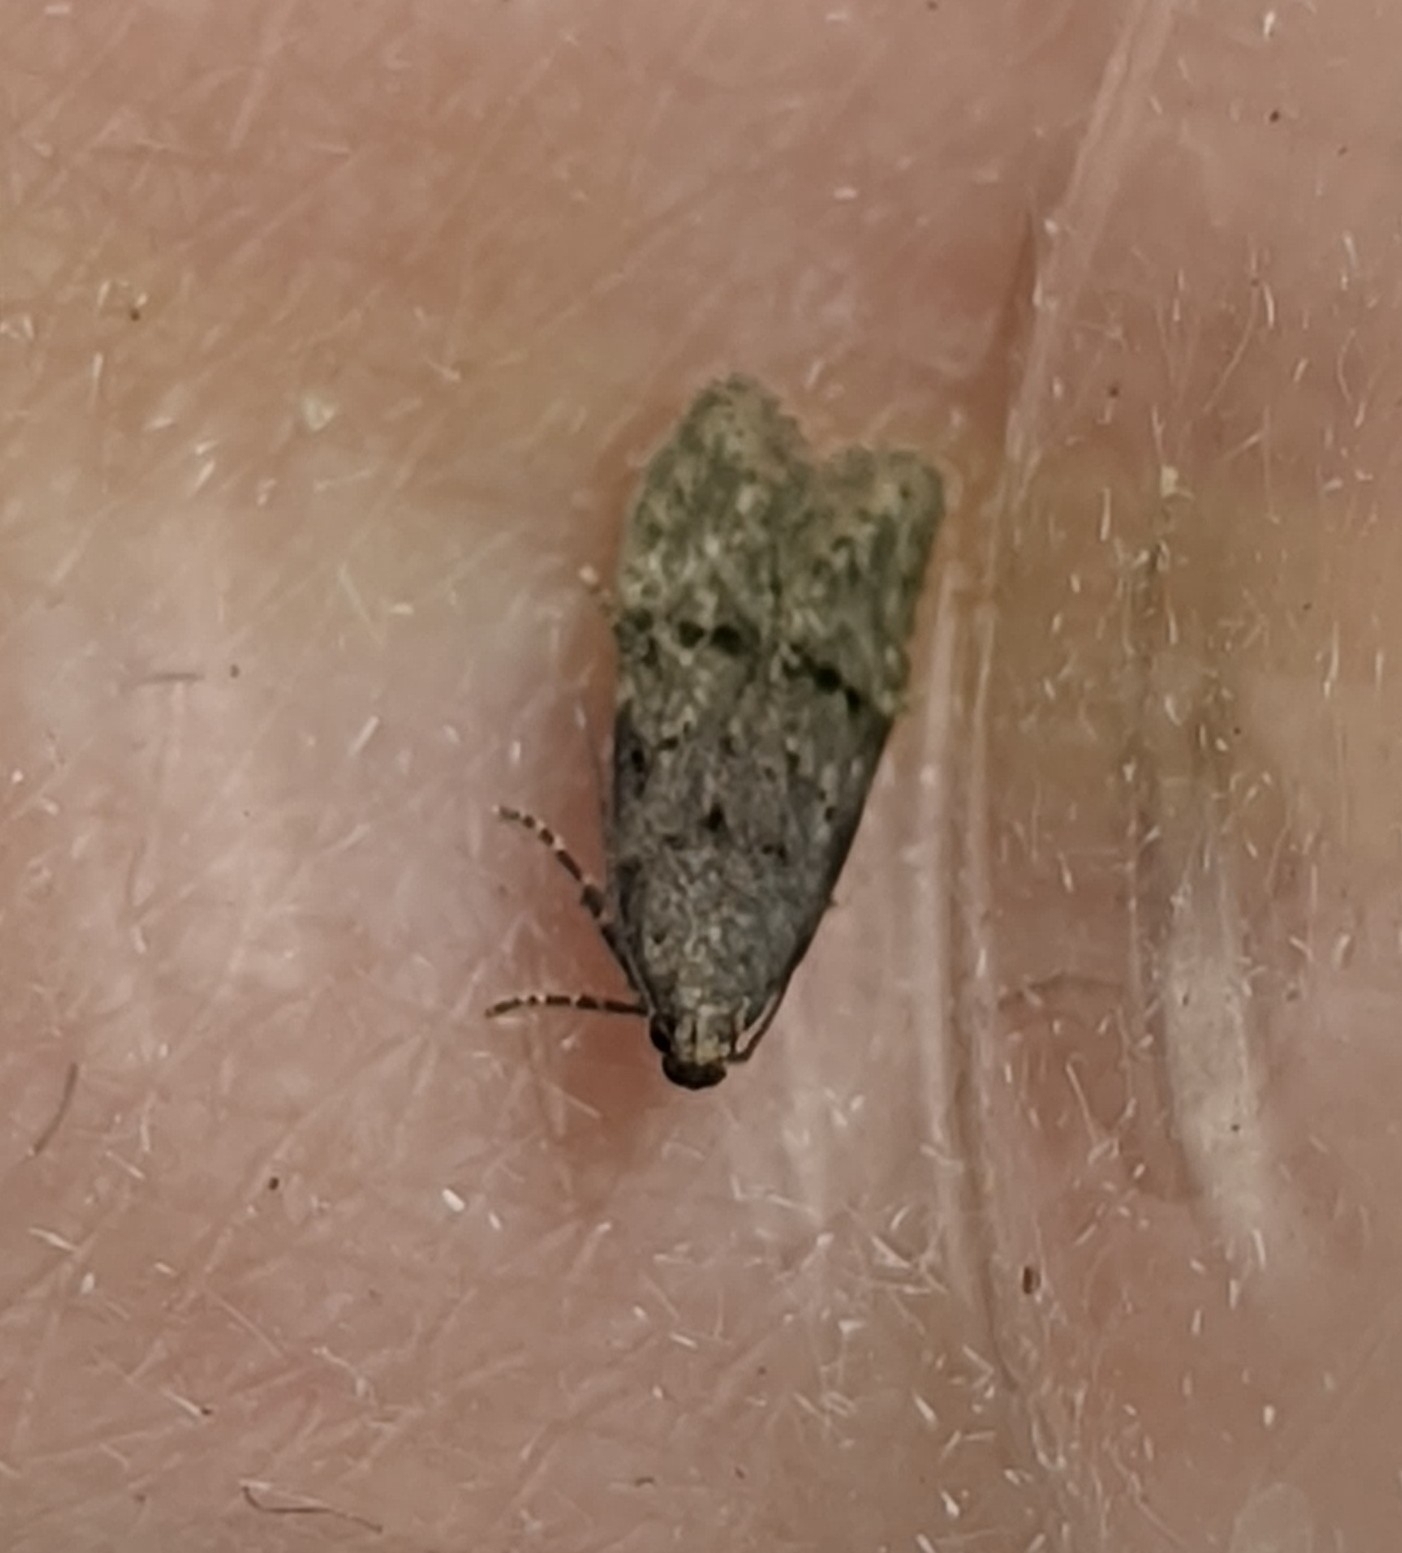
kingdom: Animalia
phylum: Arthropoda
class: Insecta
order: Lepidoptera
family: Gelechiidae
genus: Teleiodes
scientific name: Teleiodes vulgella
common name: Common groundling
